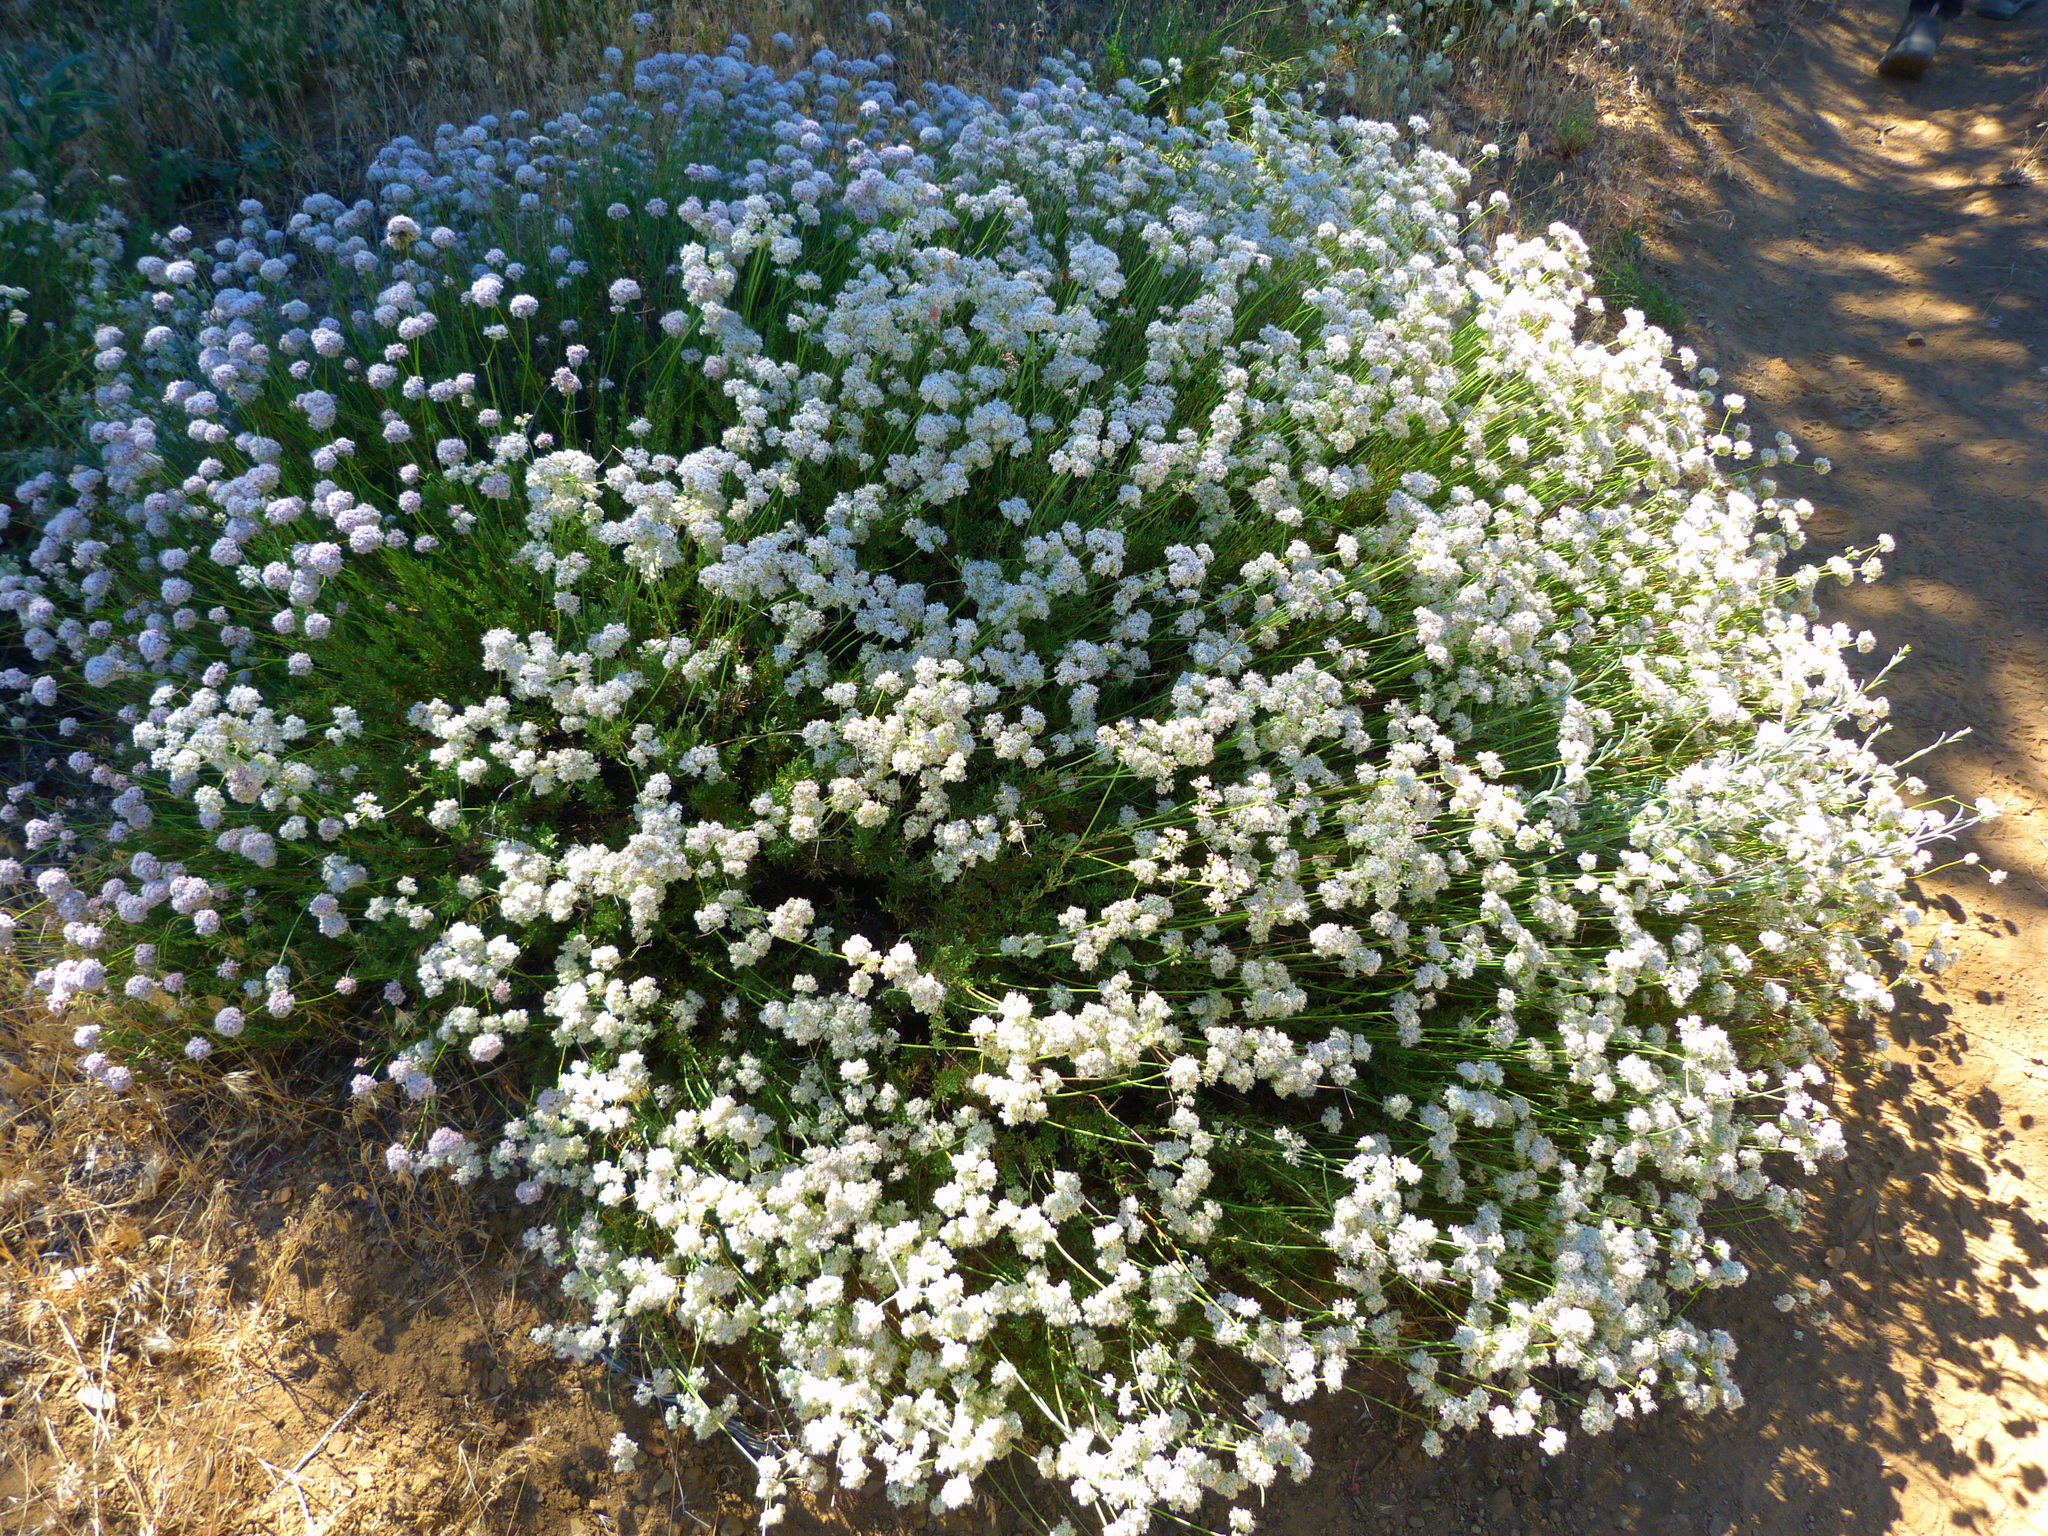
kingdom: Plantae
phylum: Tracheophyta
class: Magnoliopsida
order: Caryophyllales
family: Polygonaceae
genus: Eriogonum
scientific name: Eriogonum fasciculatum
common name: California wild buckwheat
